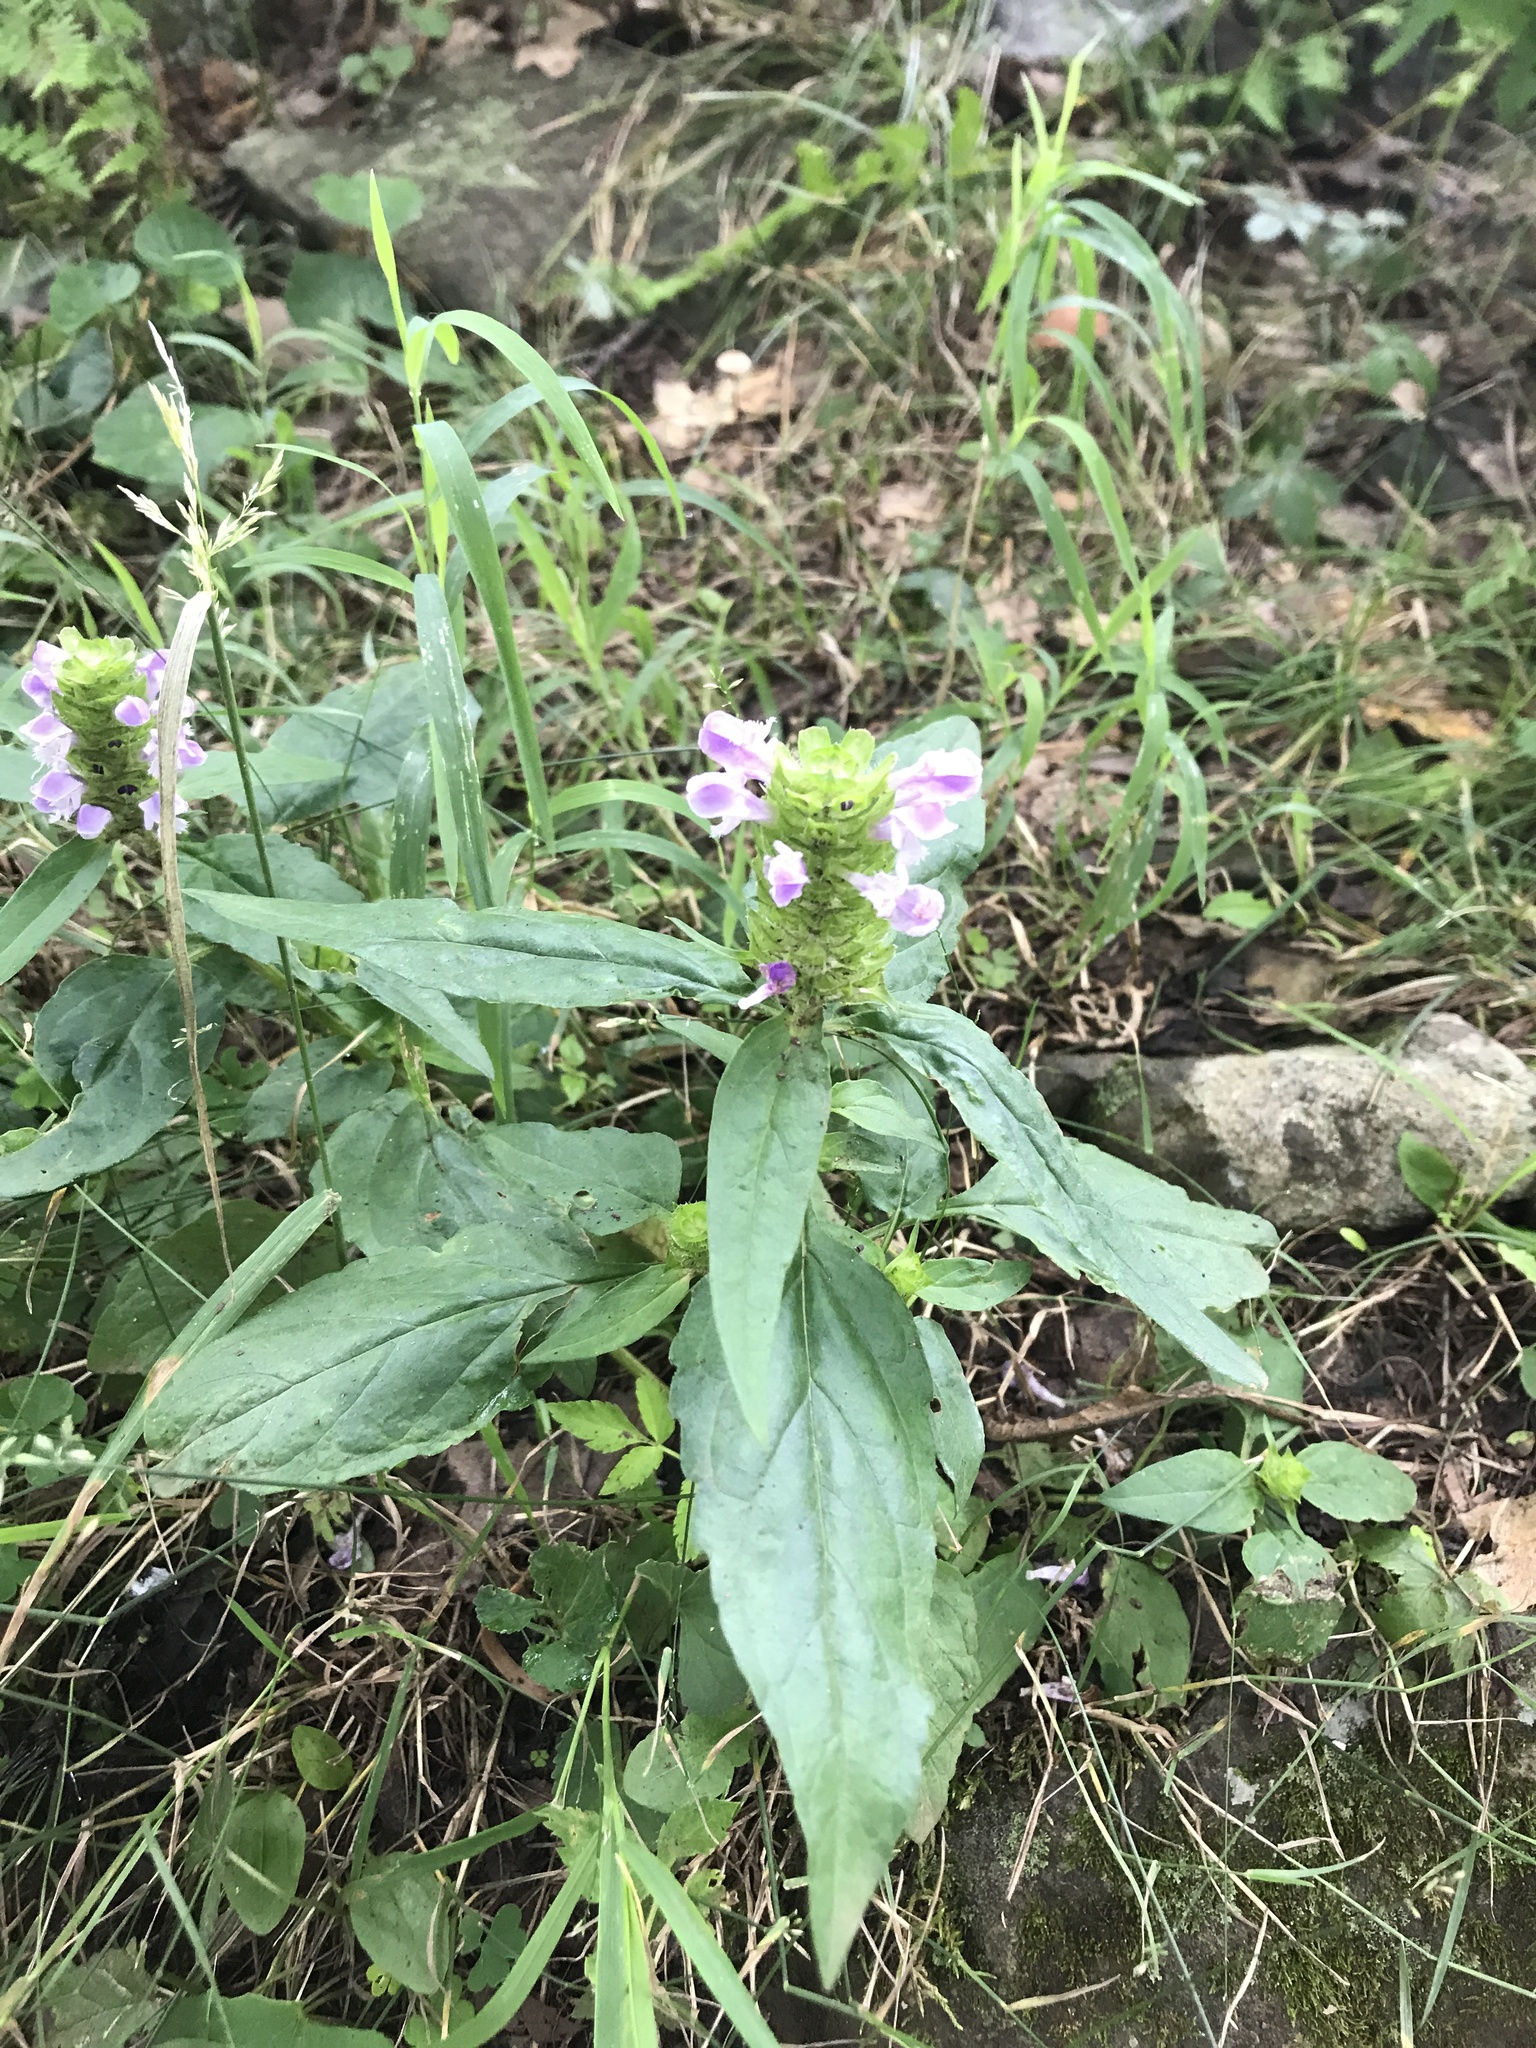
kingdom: Plantae
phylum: Tracheophyta
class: Magnoliopsida
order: Lamiales
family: Lamiaceae
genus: Prunella
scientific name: Prunella vulgaris
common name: Heal-all
